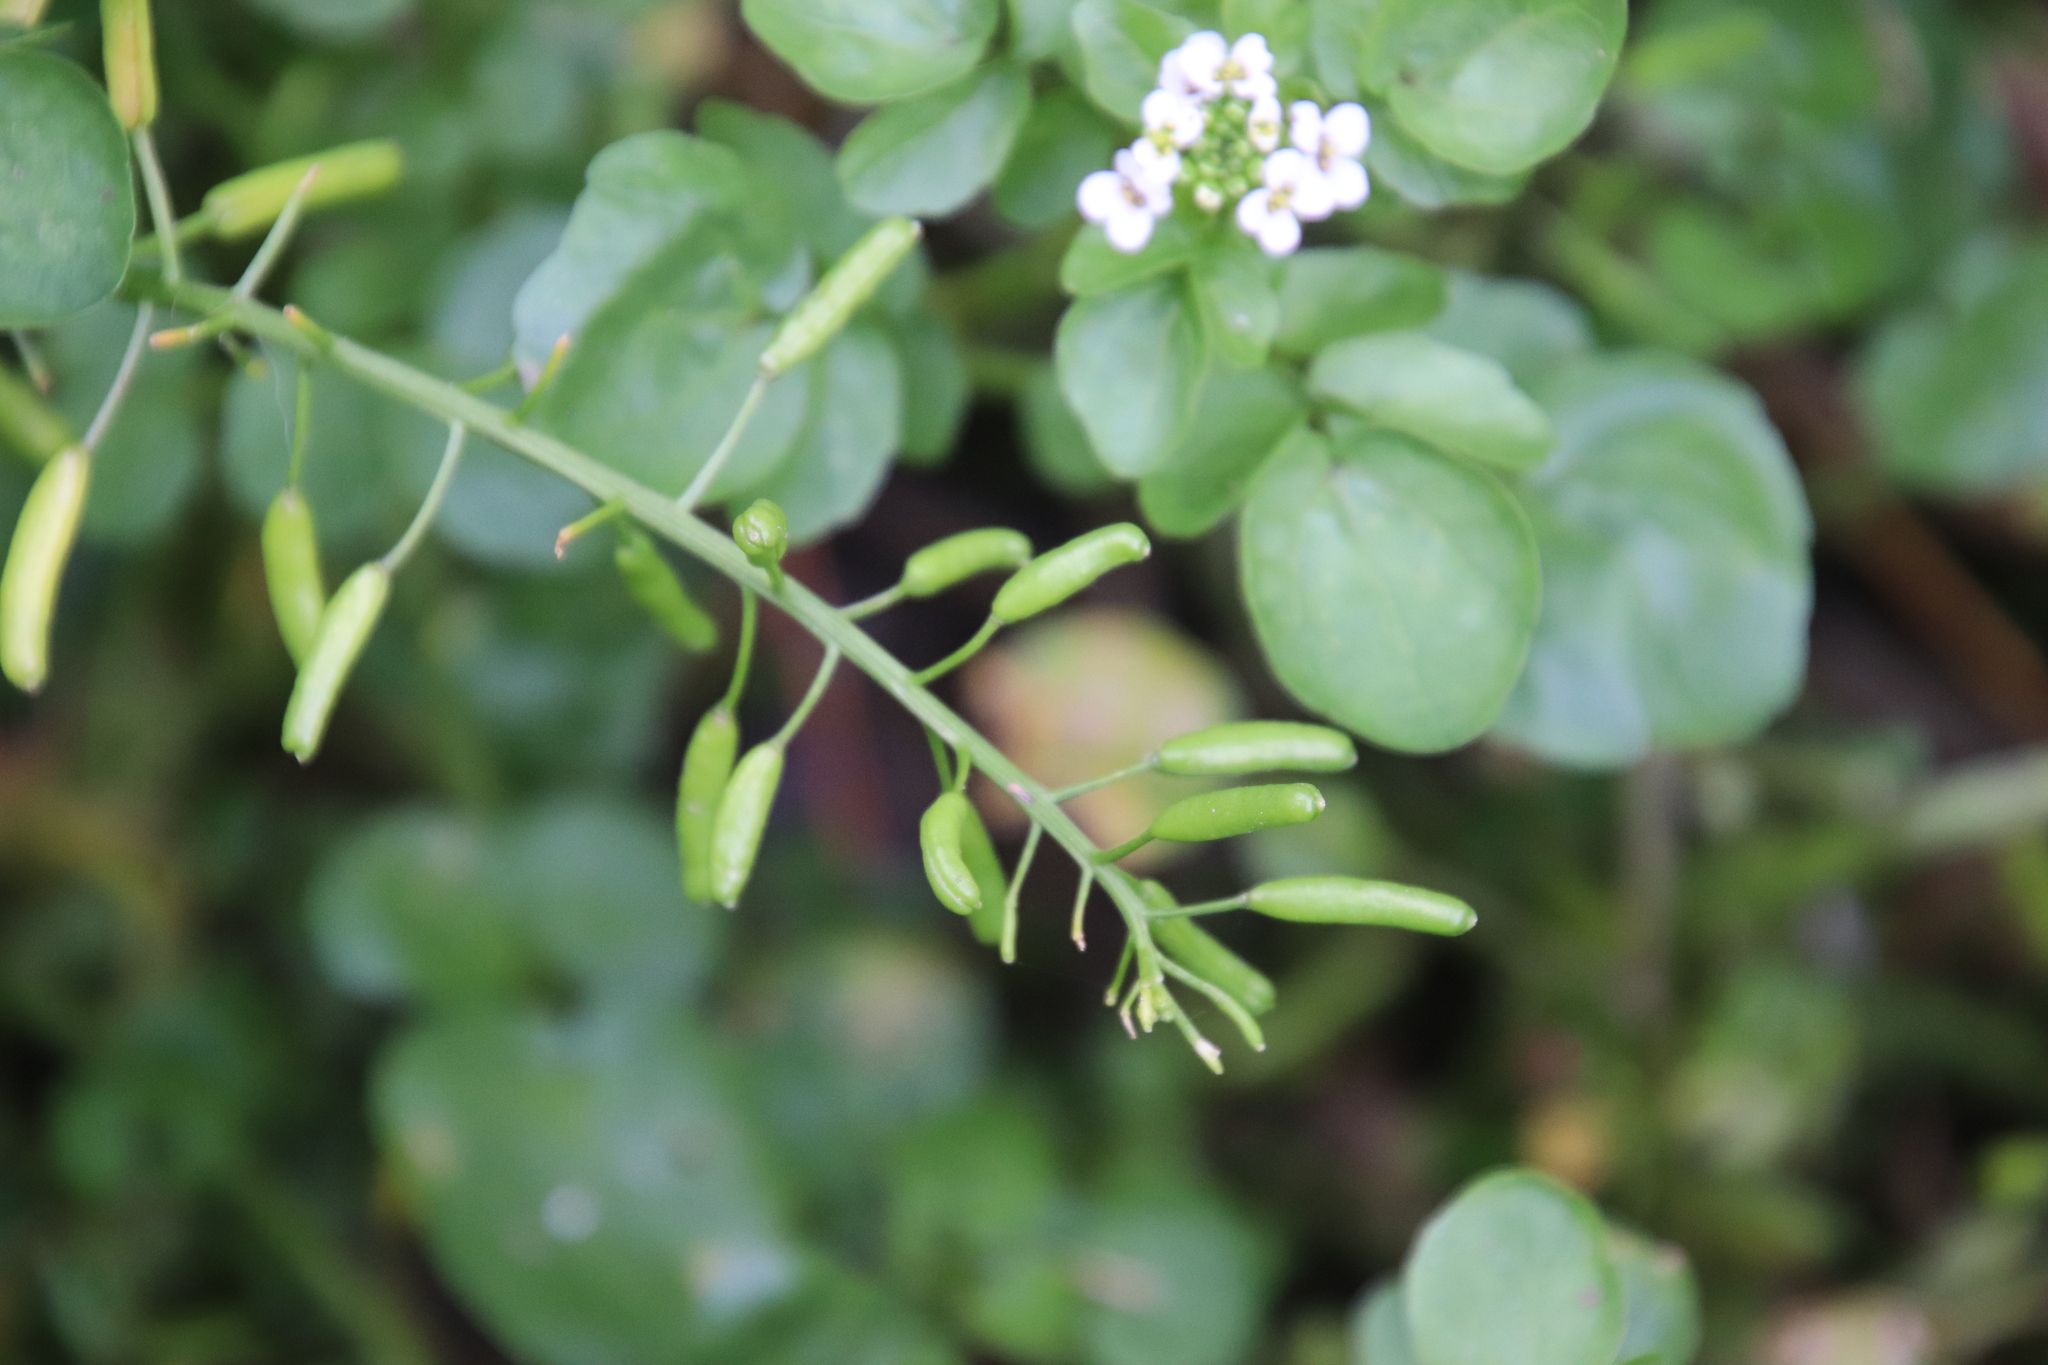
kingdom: Plantae
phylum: Tracheophyta
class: Magnoliopsida
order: Brassicales
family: Brassicaceae
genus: Nasturtium
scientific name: Nasturtium officinale
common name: Watercress
